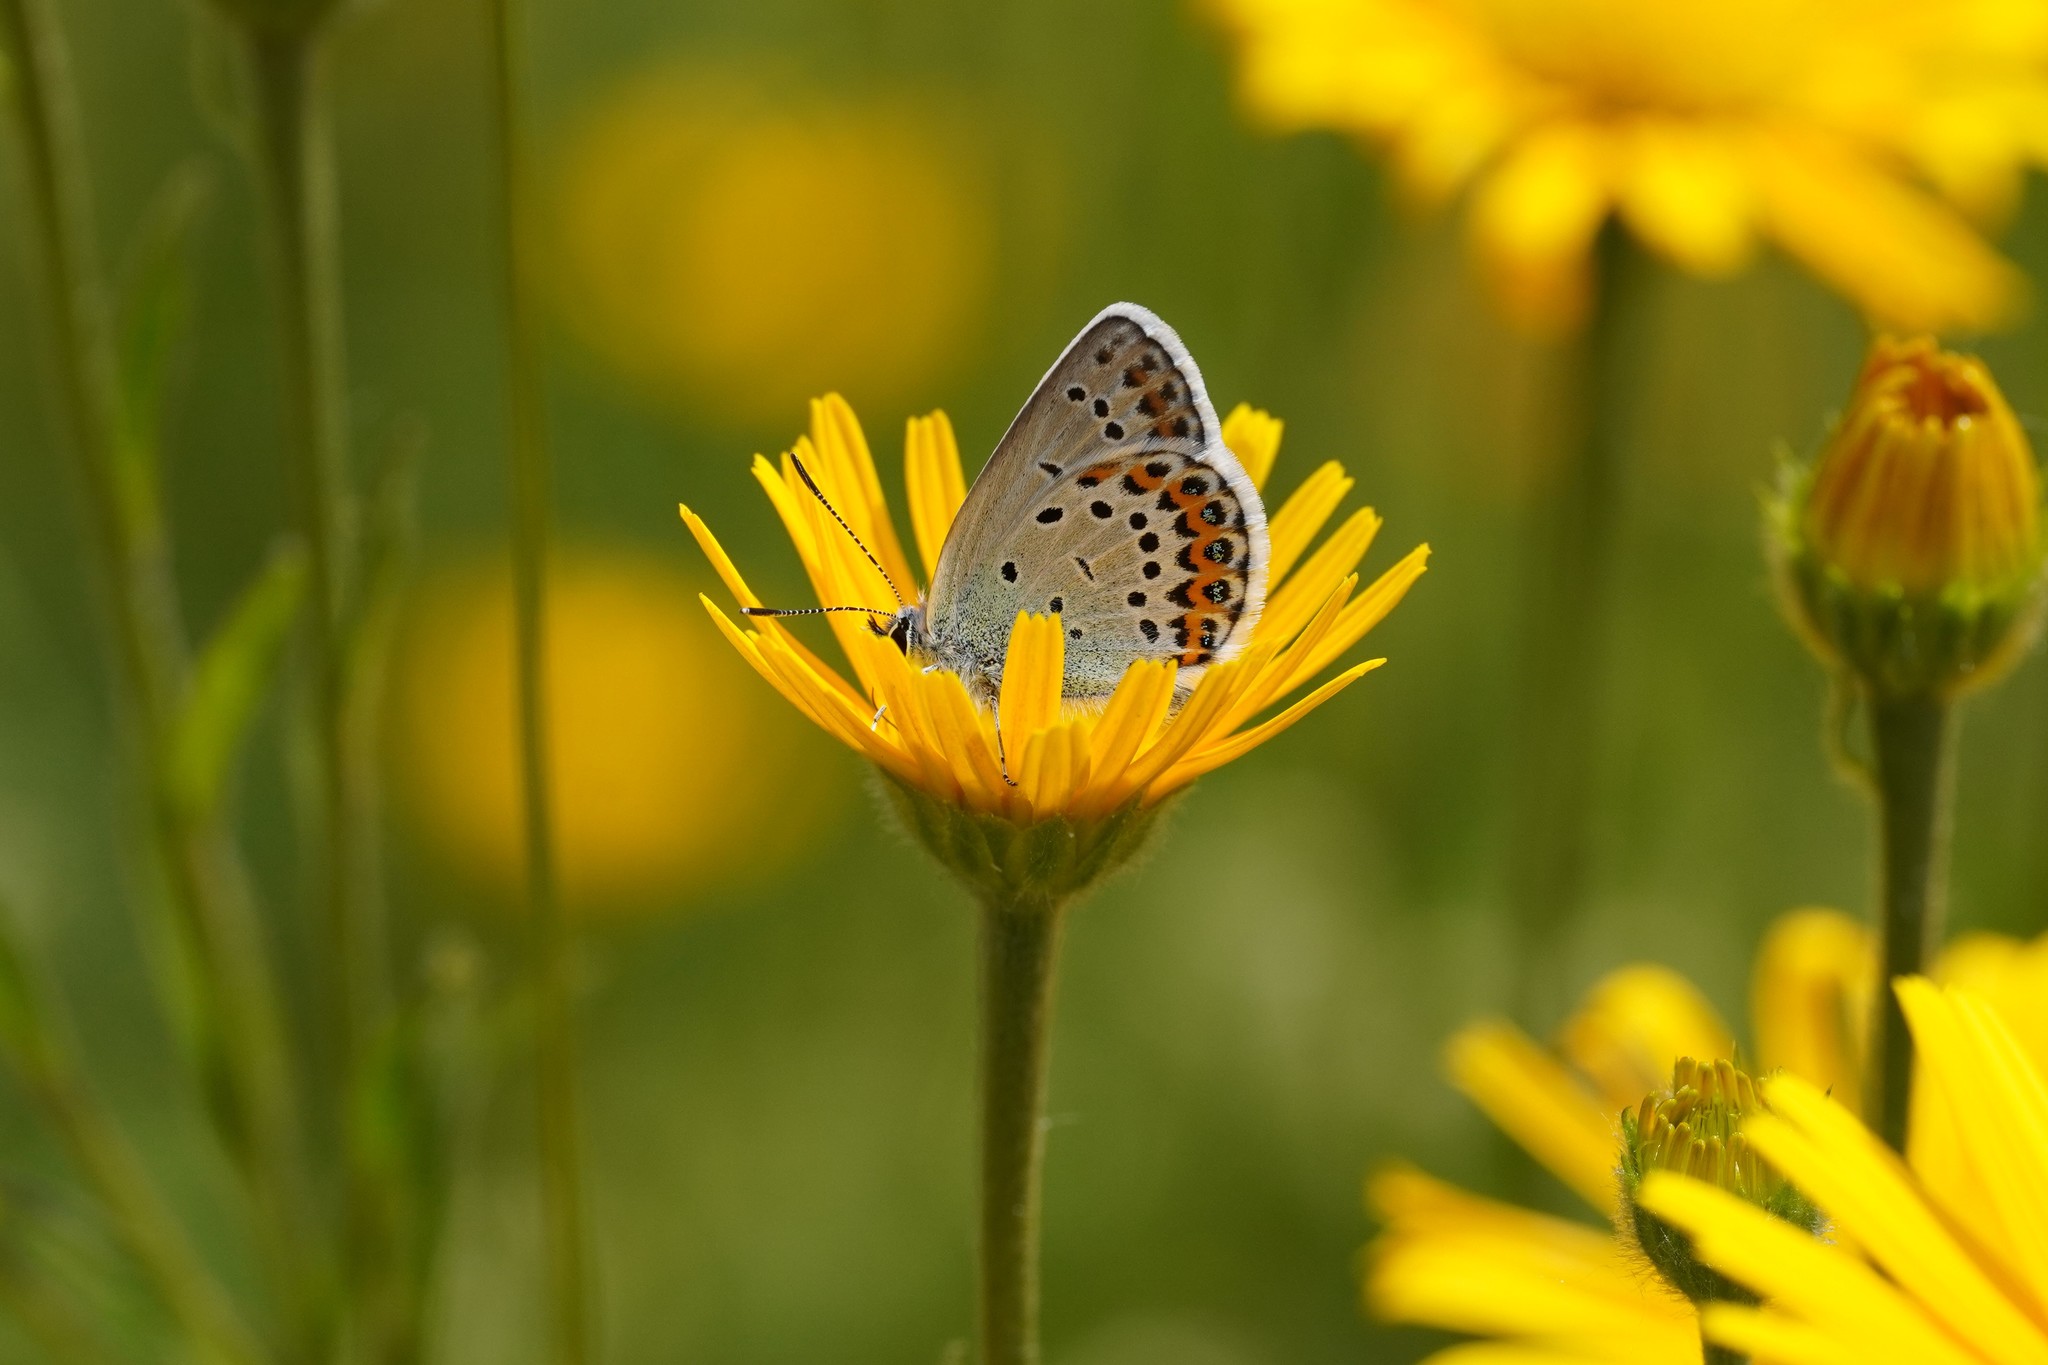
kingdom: Animalia
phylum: Arthropoda
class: Insecta
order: Lepidoptera
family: Lycaenidae
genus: Lycaeides
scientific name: Lycaeides idas
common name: Northern blue
